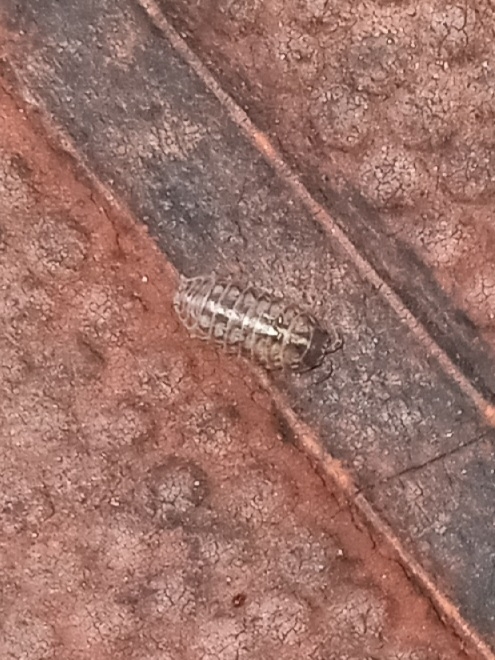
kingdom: Animalia
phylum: Arthropoda
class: Malacostraca
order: Isopoda
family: Armadillidiidae
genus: Armadillidium
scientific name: Armadillidium vulgare
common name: Common pill woodlouse
